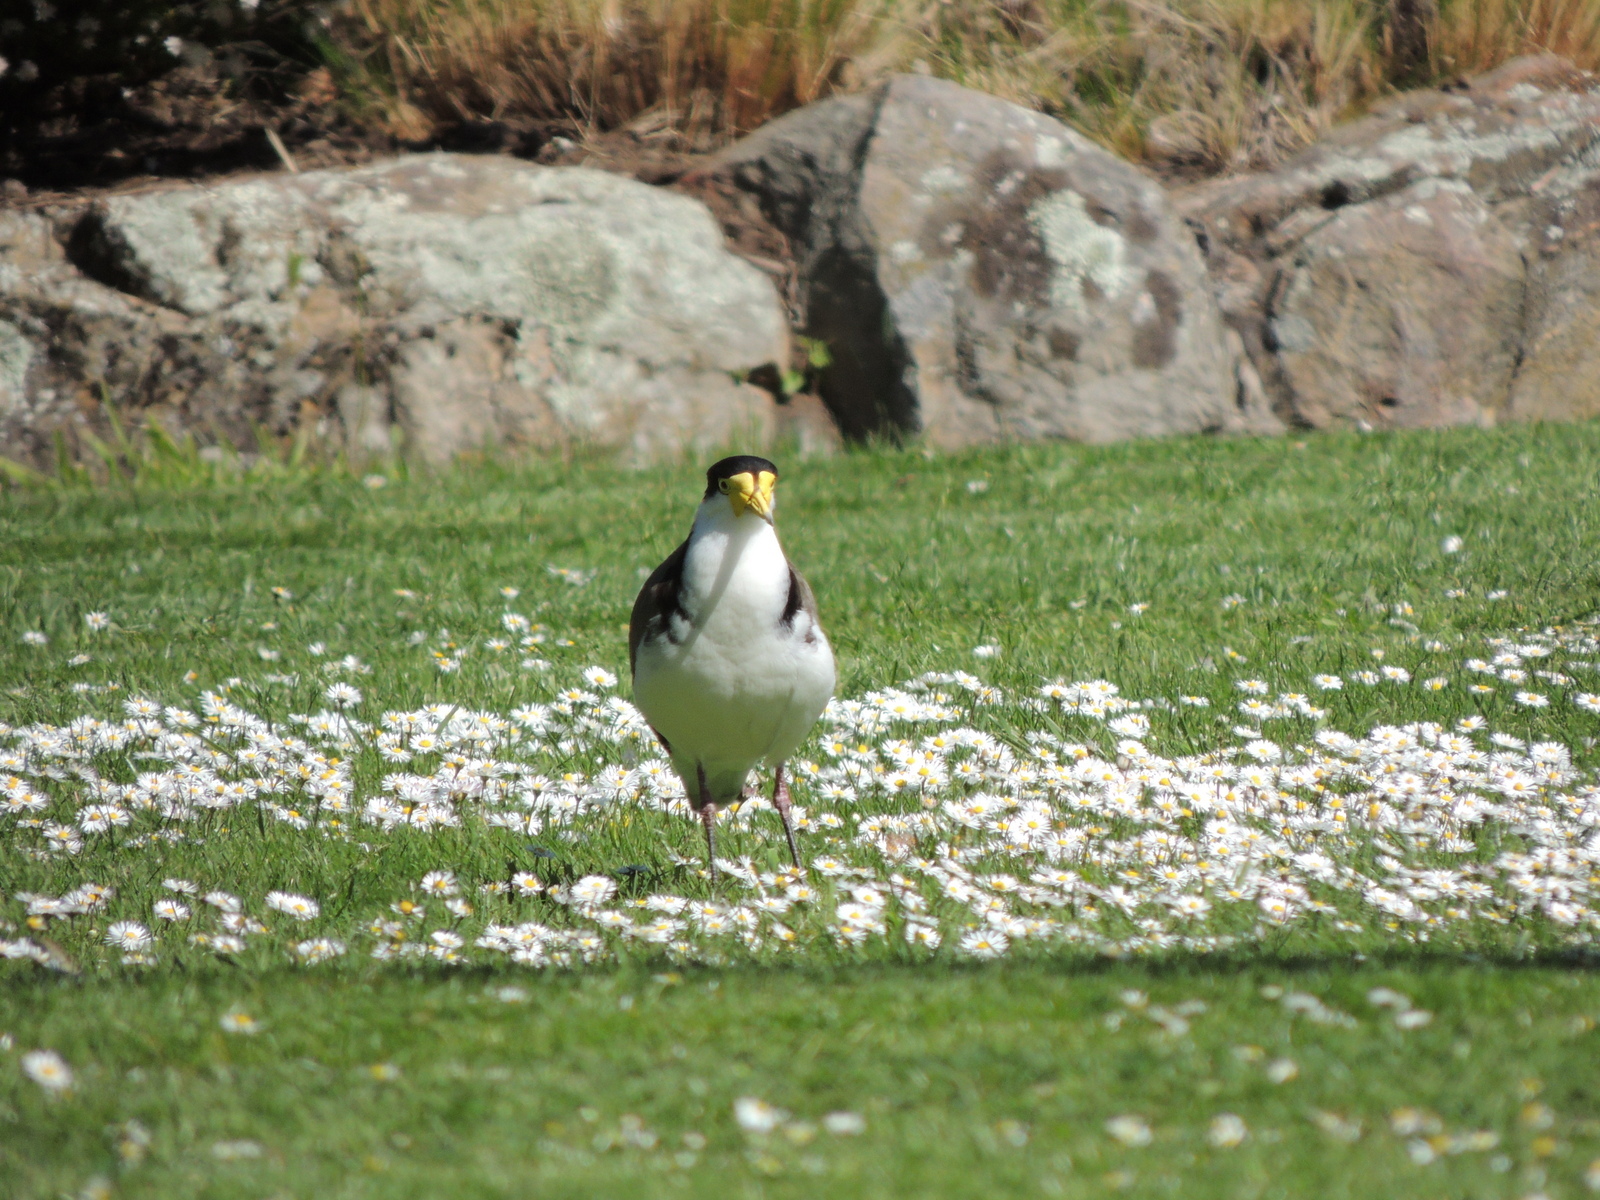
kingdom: Animalia
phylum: Chordata
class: Aves
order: Charadriiformes
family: Charadriidae
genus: Vanellus
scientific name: Vanellus miles
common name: Masked lapwing
